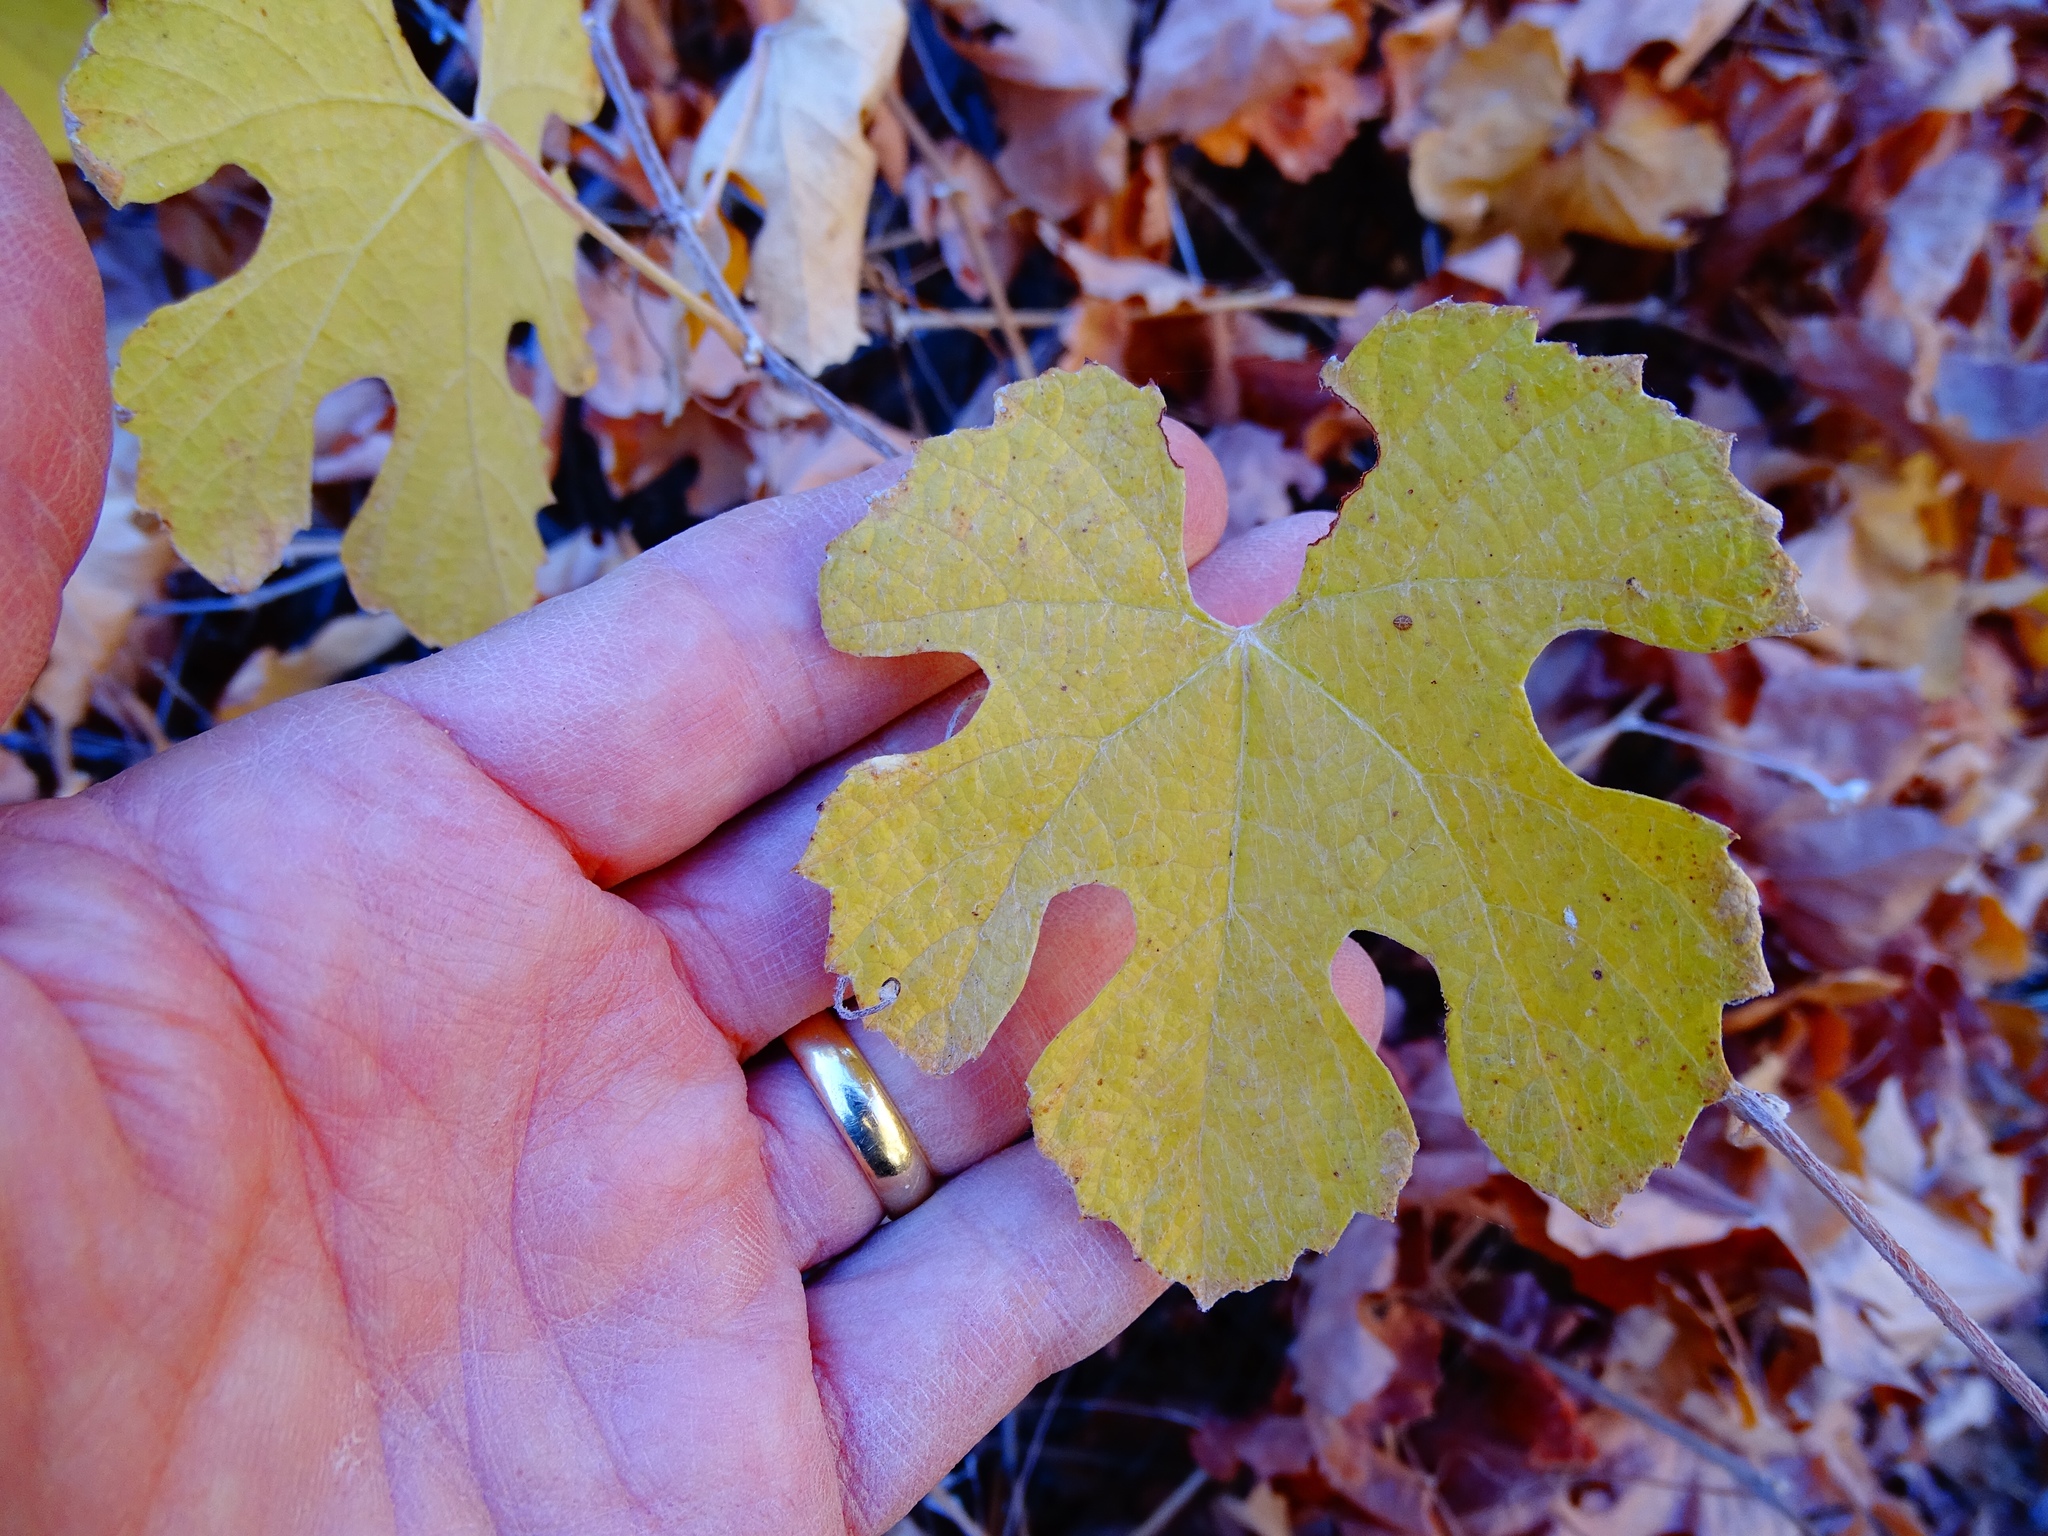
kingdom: Plantae
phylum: Tracheophyta
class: Magnoliopsida
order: Vitales
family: Vitaceae
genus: Vitis
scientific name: Vitis girdiana
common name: Desert wild grape
